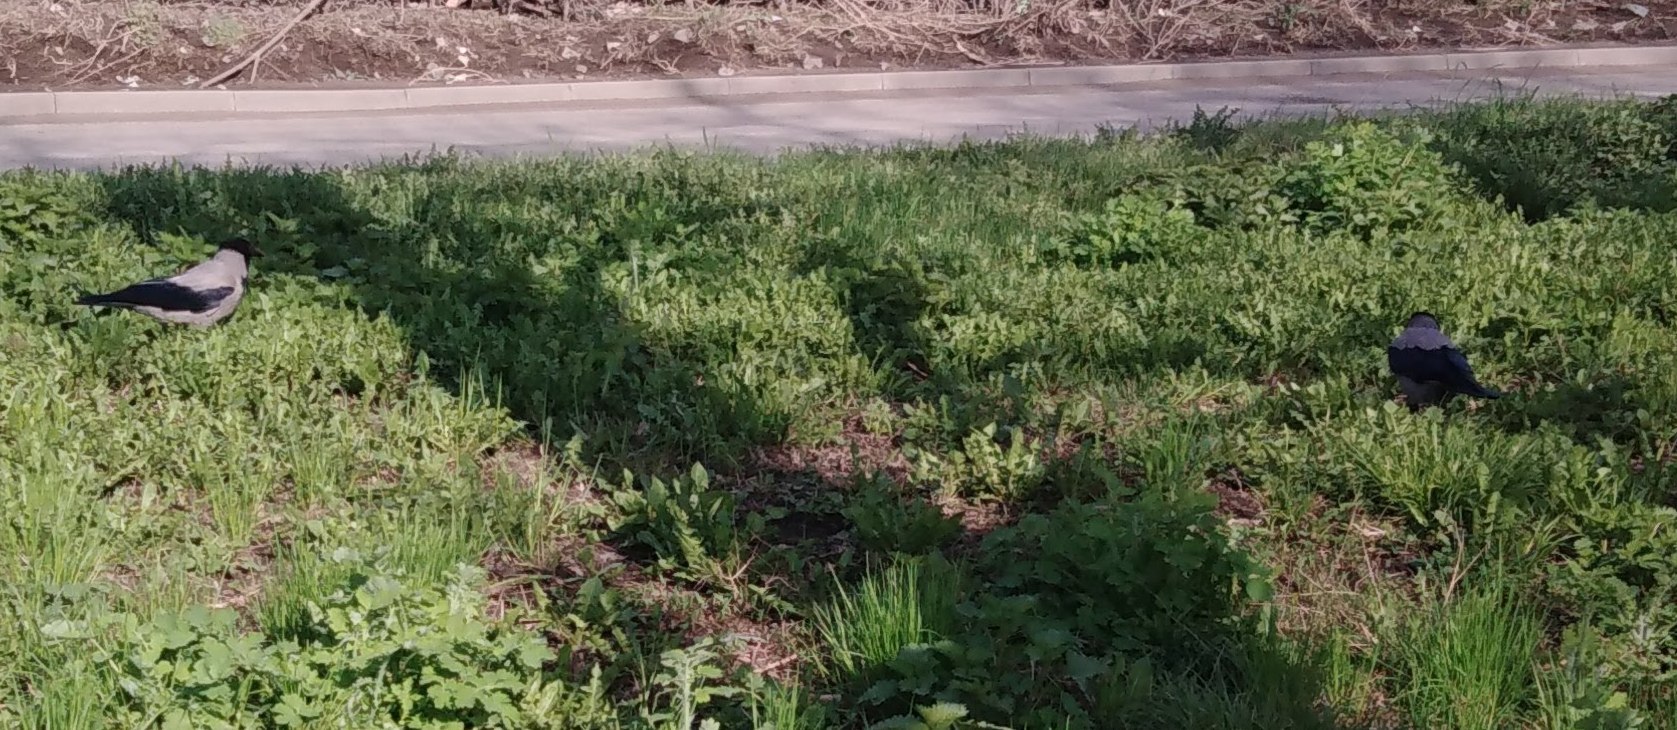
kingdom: Animalia
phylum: Chordata
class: Aves
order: Passeriformes
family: Corvidae
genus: Corvus
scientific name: Corvus cornix
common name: Hooded crow
